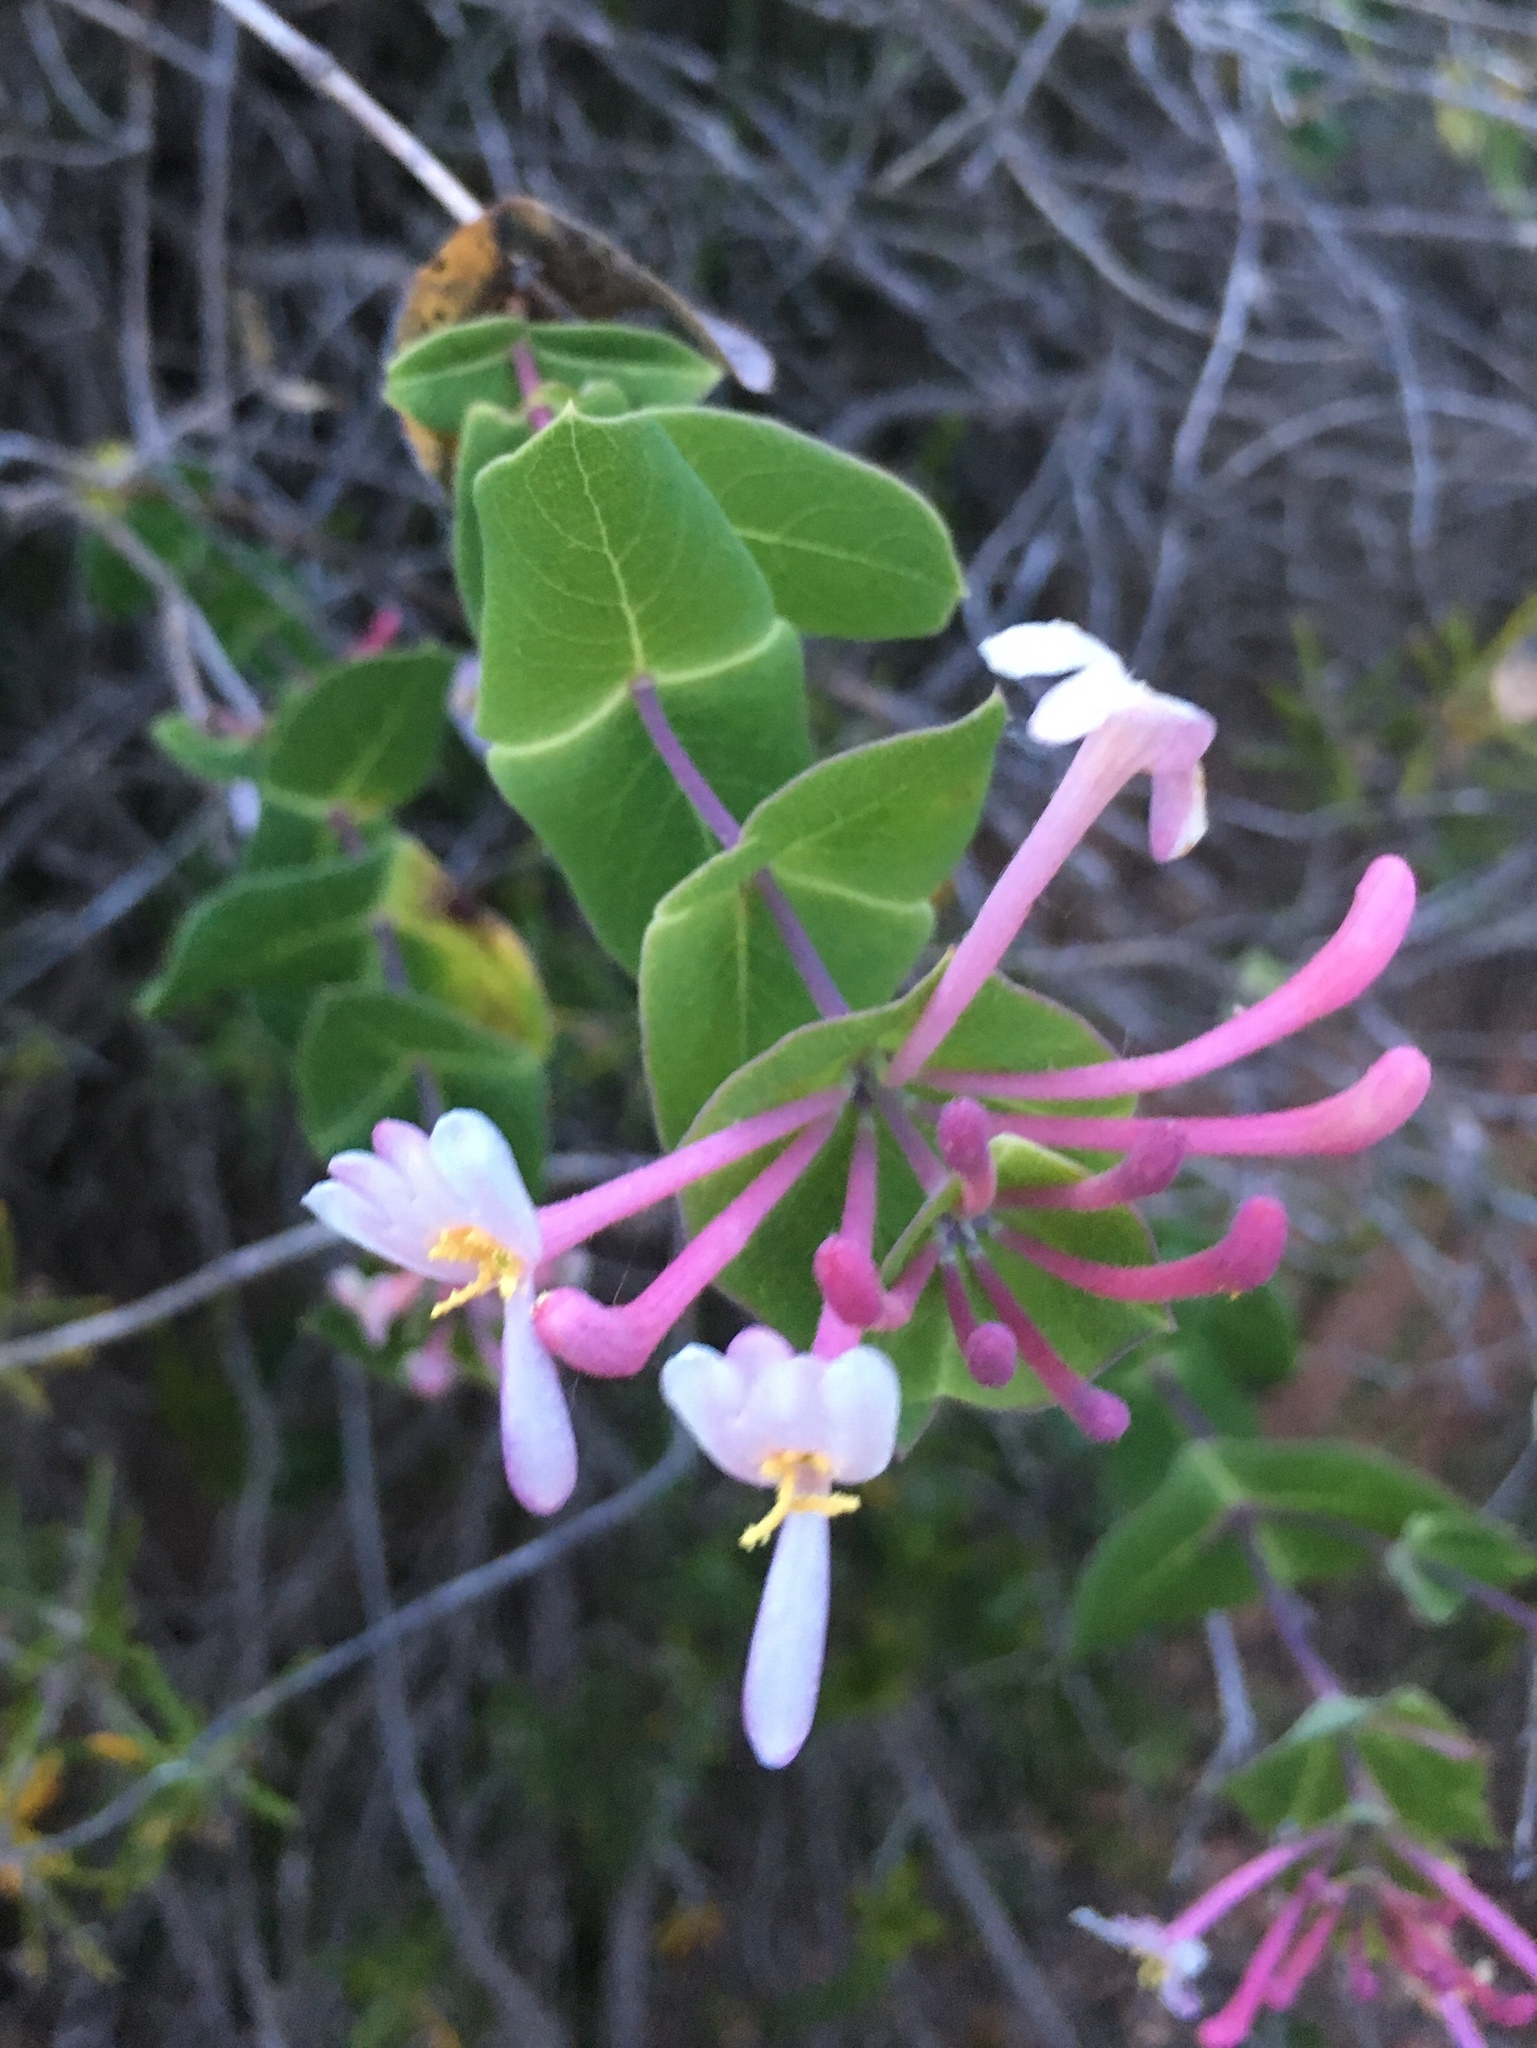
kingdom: Plantae
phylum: Tracheophyta
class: Magnoliopsida
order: Dipsacales
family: Caprifoliaceae
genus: Lonicera
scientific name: Lonicera implexa
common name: Minorca honeysuckle
